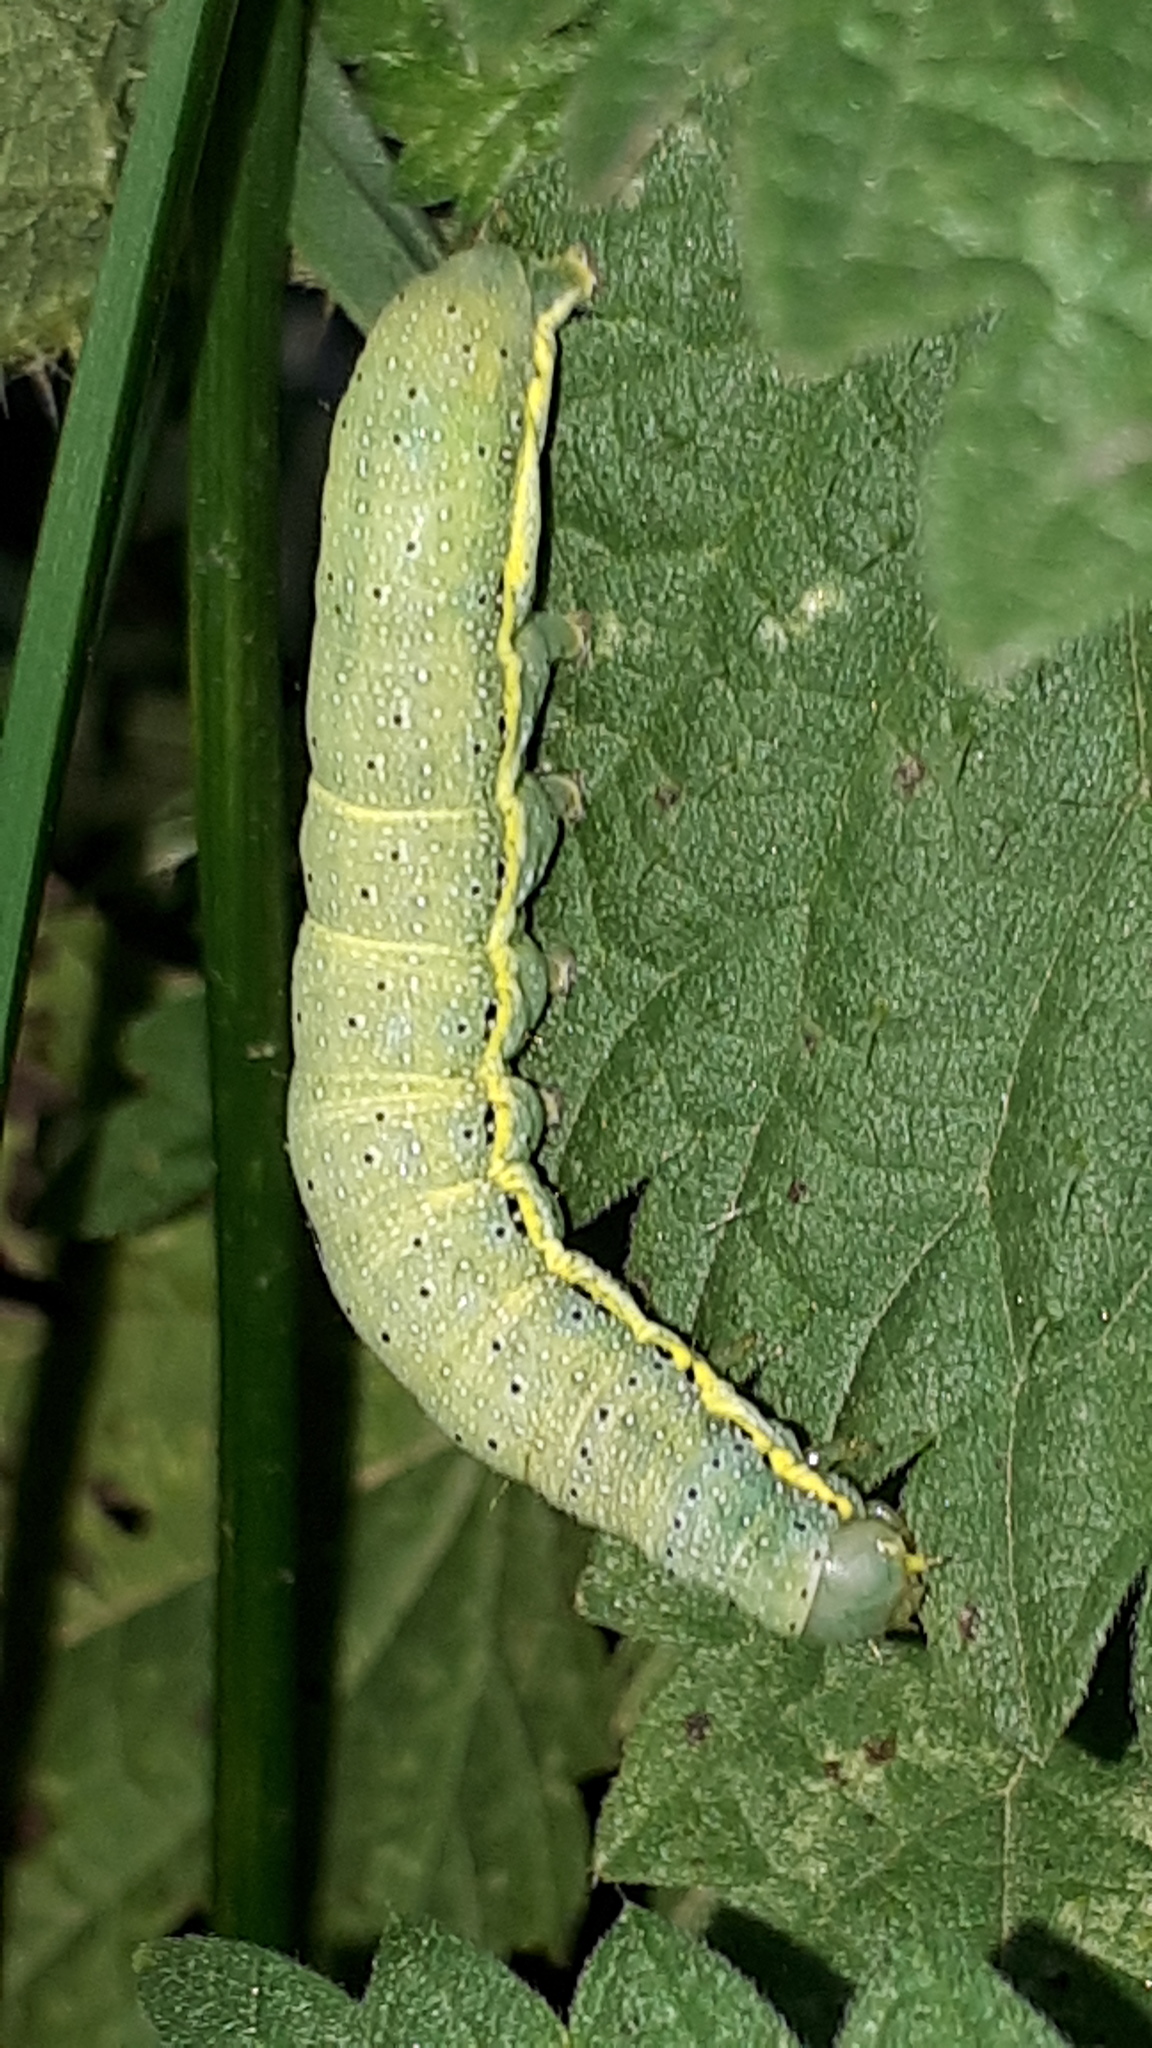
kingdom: Animalia
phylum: Arthropoda
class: Insecta
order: Lepidoptera
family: Noctuidae
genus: Lacanobia
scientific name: Lacanobia oleracea
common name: Bright-line brown-eye
